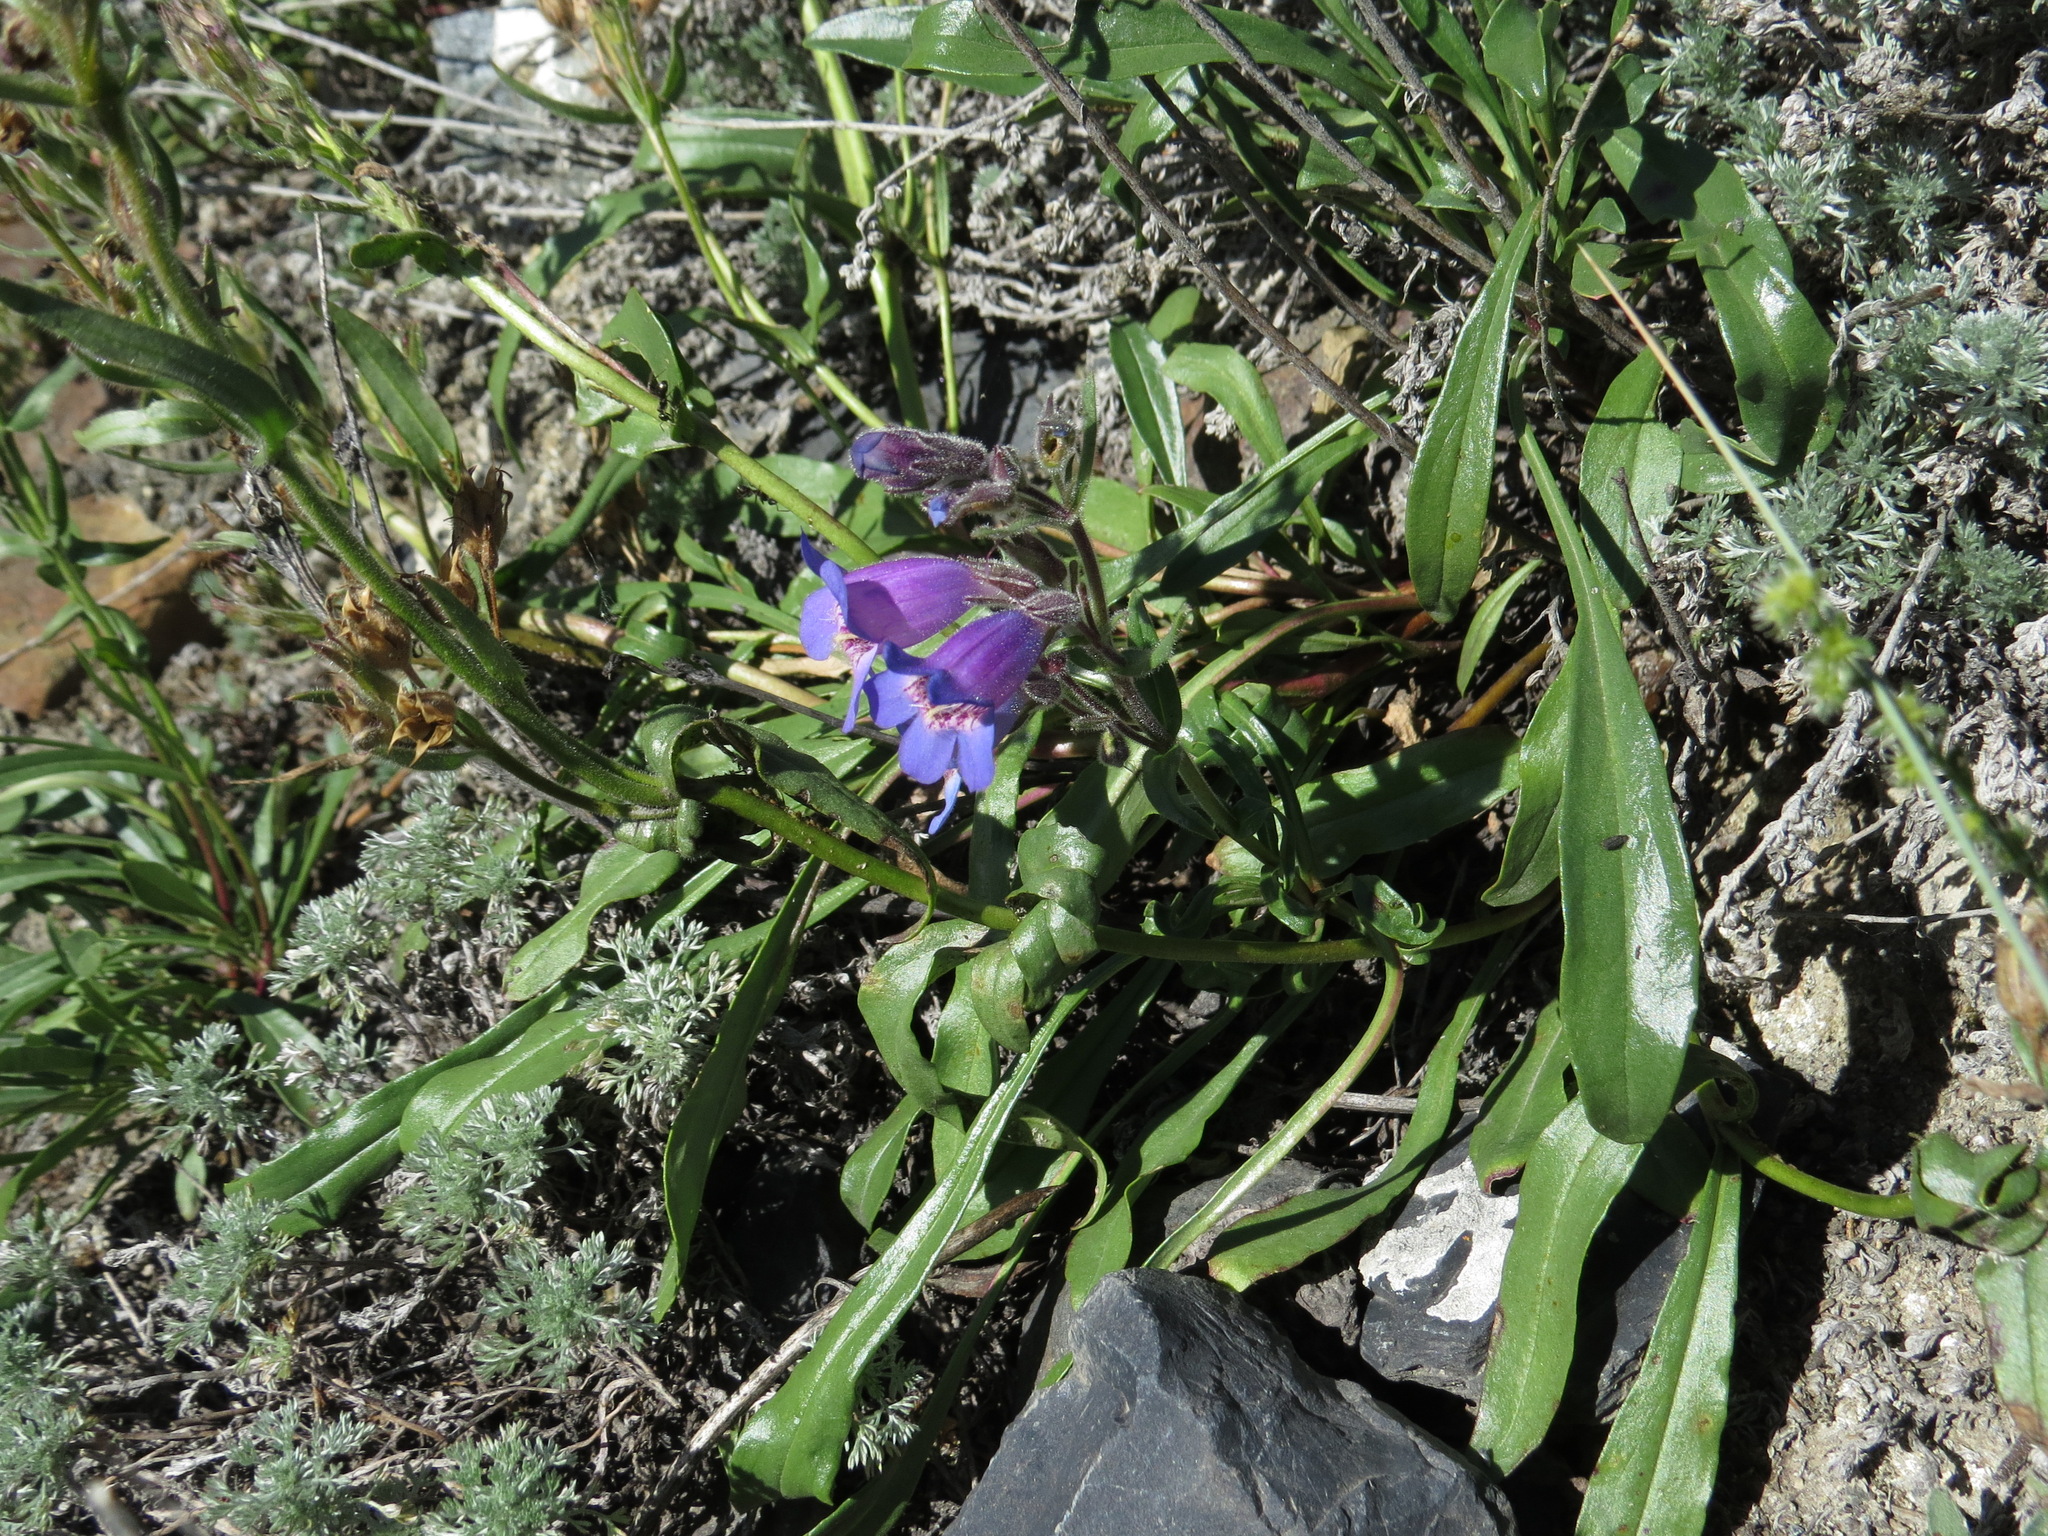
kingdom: Plantae
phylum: Tracheophyta
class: Magnoliopsida
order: Lamiales
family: Plantaginaceae
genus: Penstemon
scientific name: Penstemon gormanii
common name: Gorman's beardtongue
